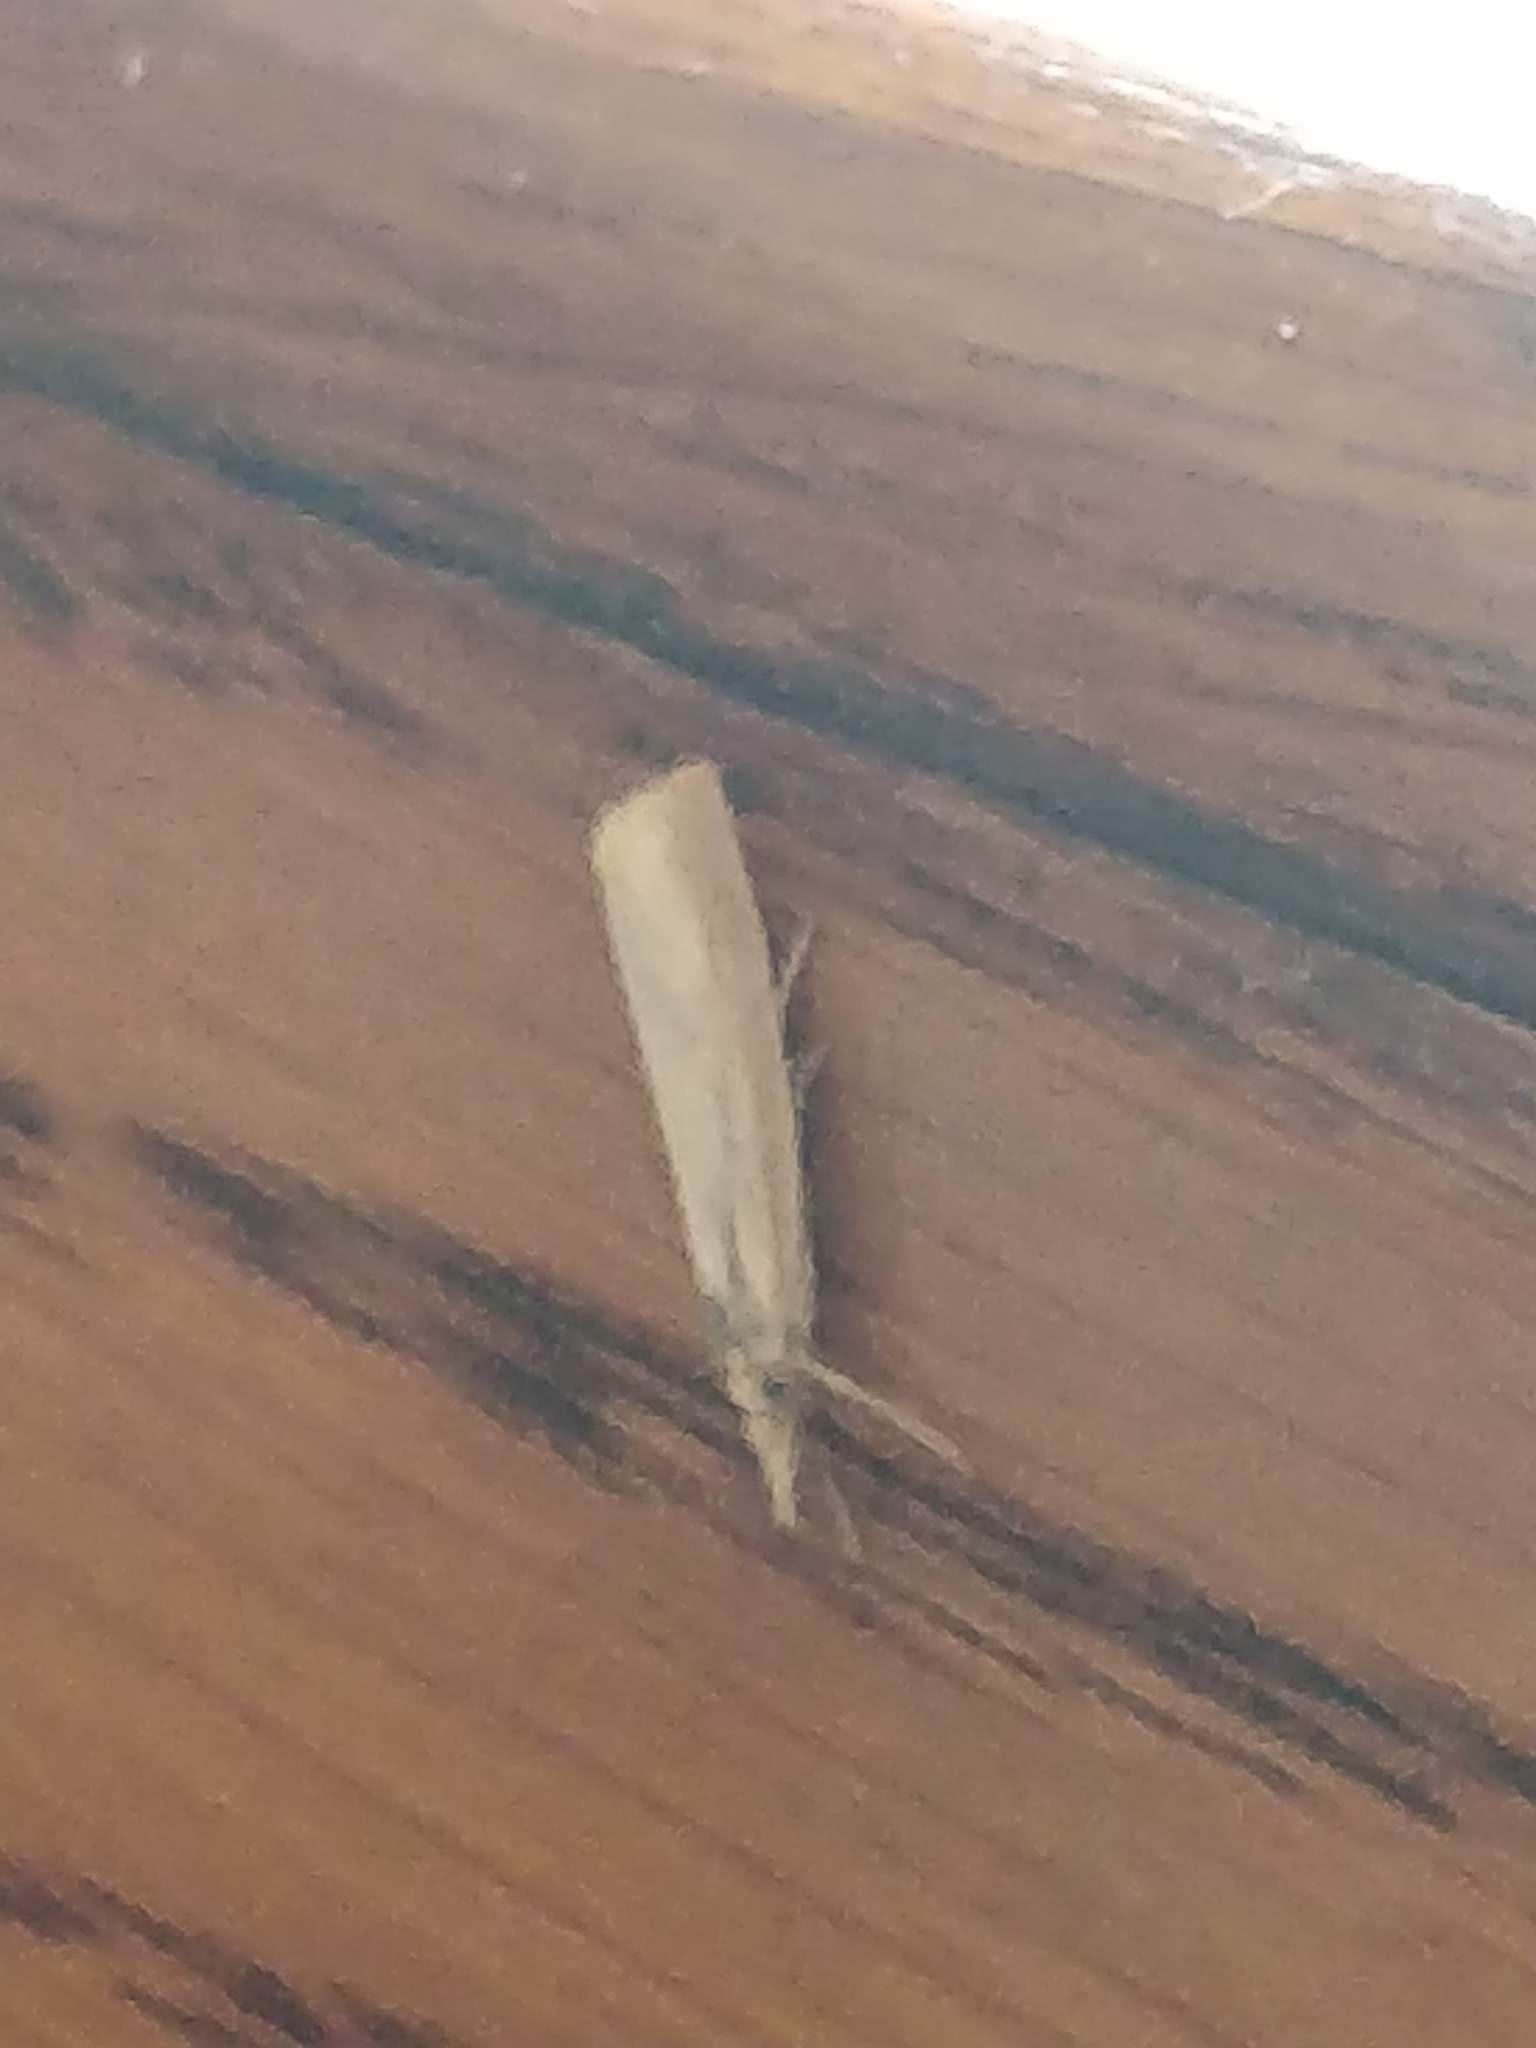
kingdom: Animalia
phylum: Arthropoda
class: Insecta
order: Lepidoptera
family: Crambidae
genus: Agriphila
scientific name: Agriphila straminella
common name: Straw grass-veneer
